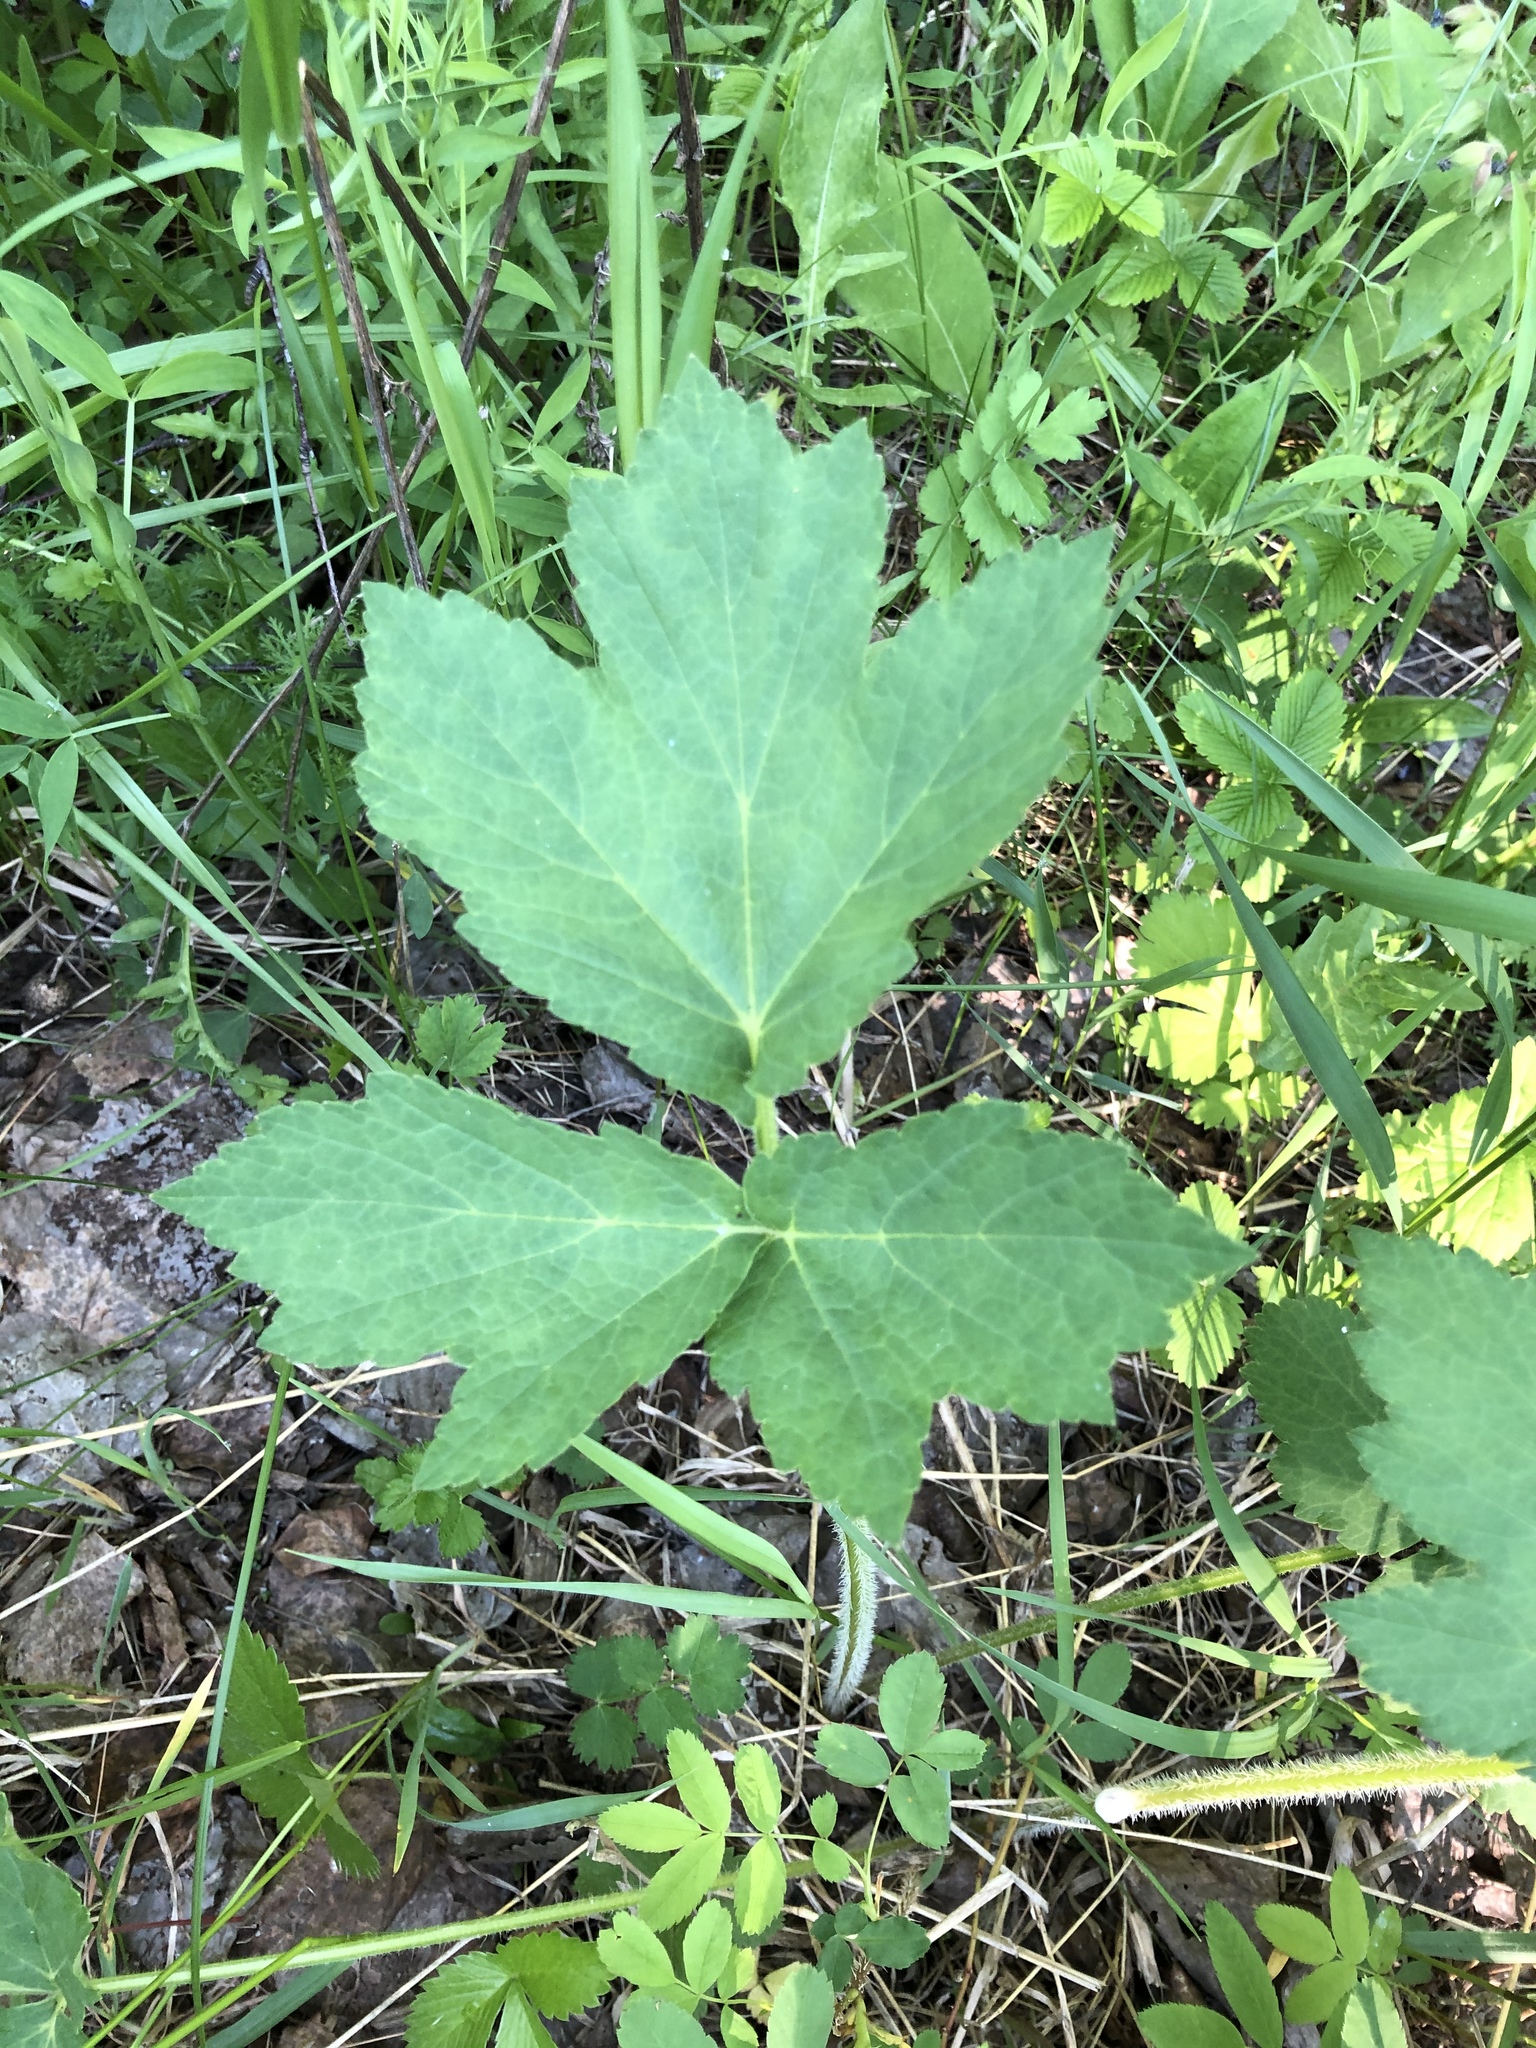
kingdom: Plantae
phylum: Tracheophyta
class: Magnoliopsida
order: Apiales
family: Apiaceae
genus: Heracleum
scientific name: Heracleum sphondylium
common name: Hogweed
